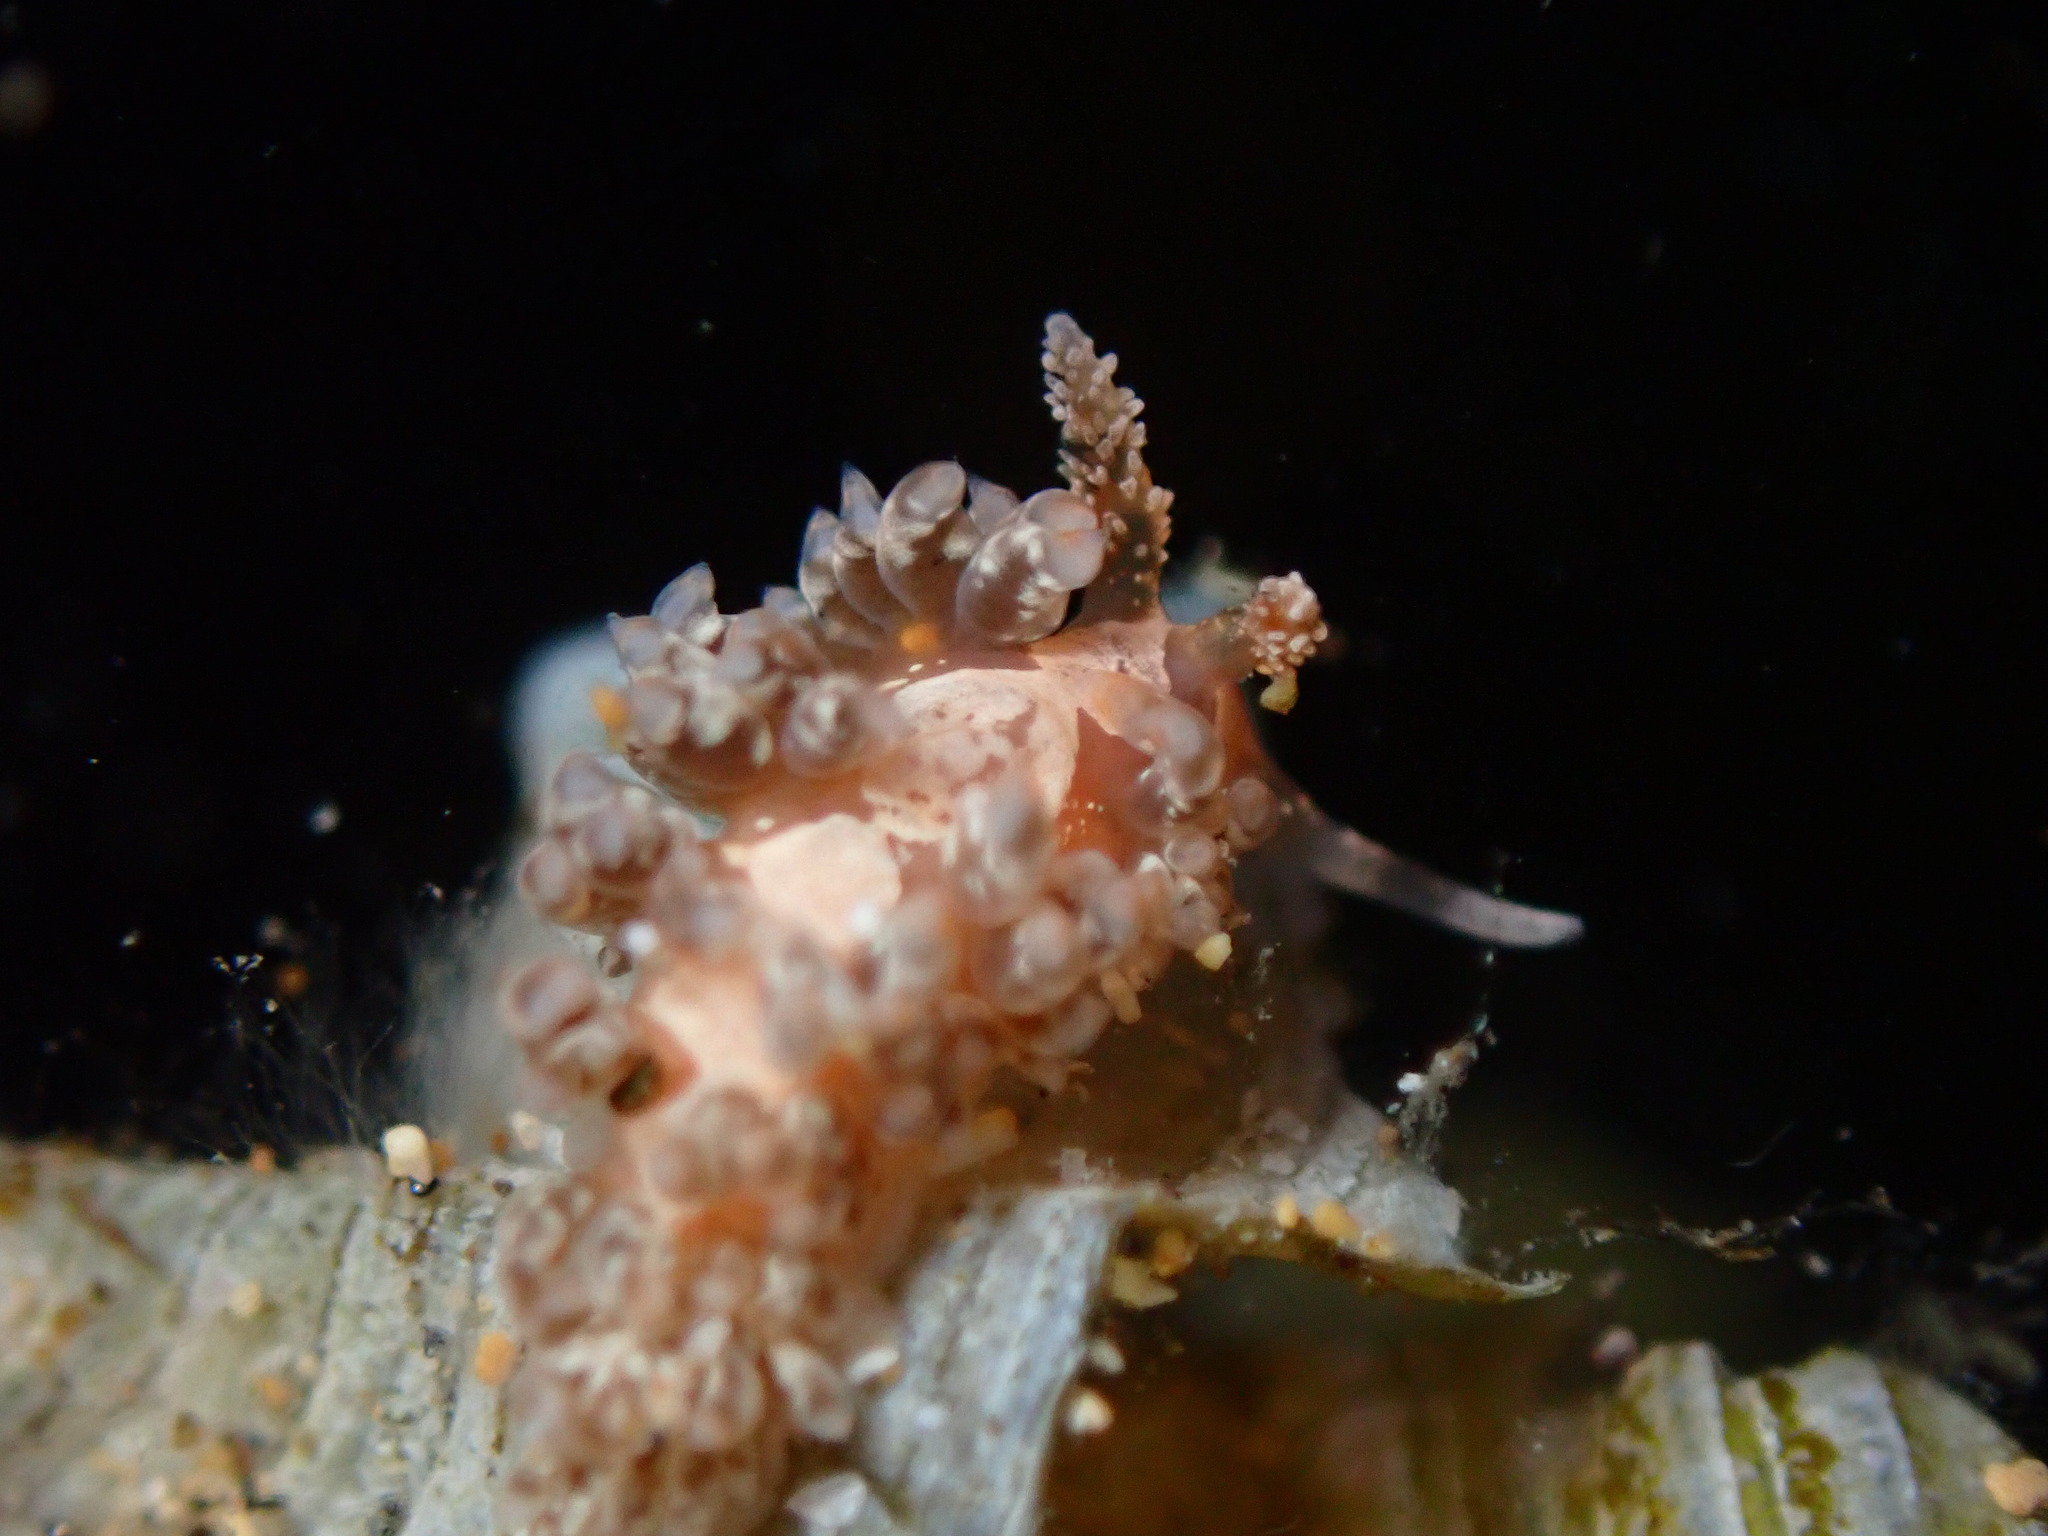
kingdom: Animalia
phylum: Mollusca
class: Gastropoda
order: Nudibranchia
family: Aeolidiidae
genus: Baeolidia
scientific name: Baeolidia salaamica
